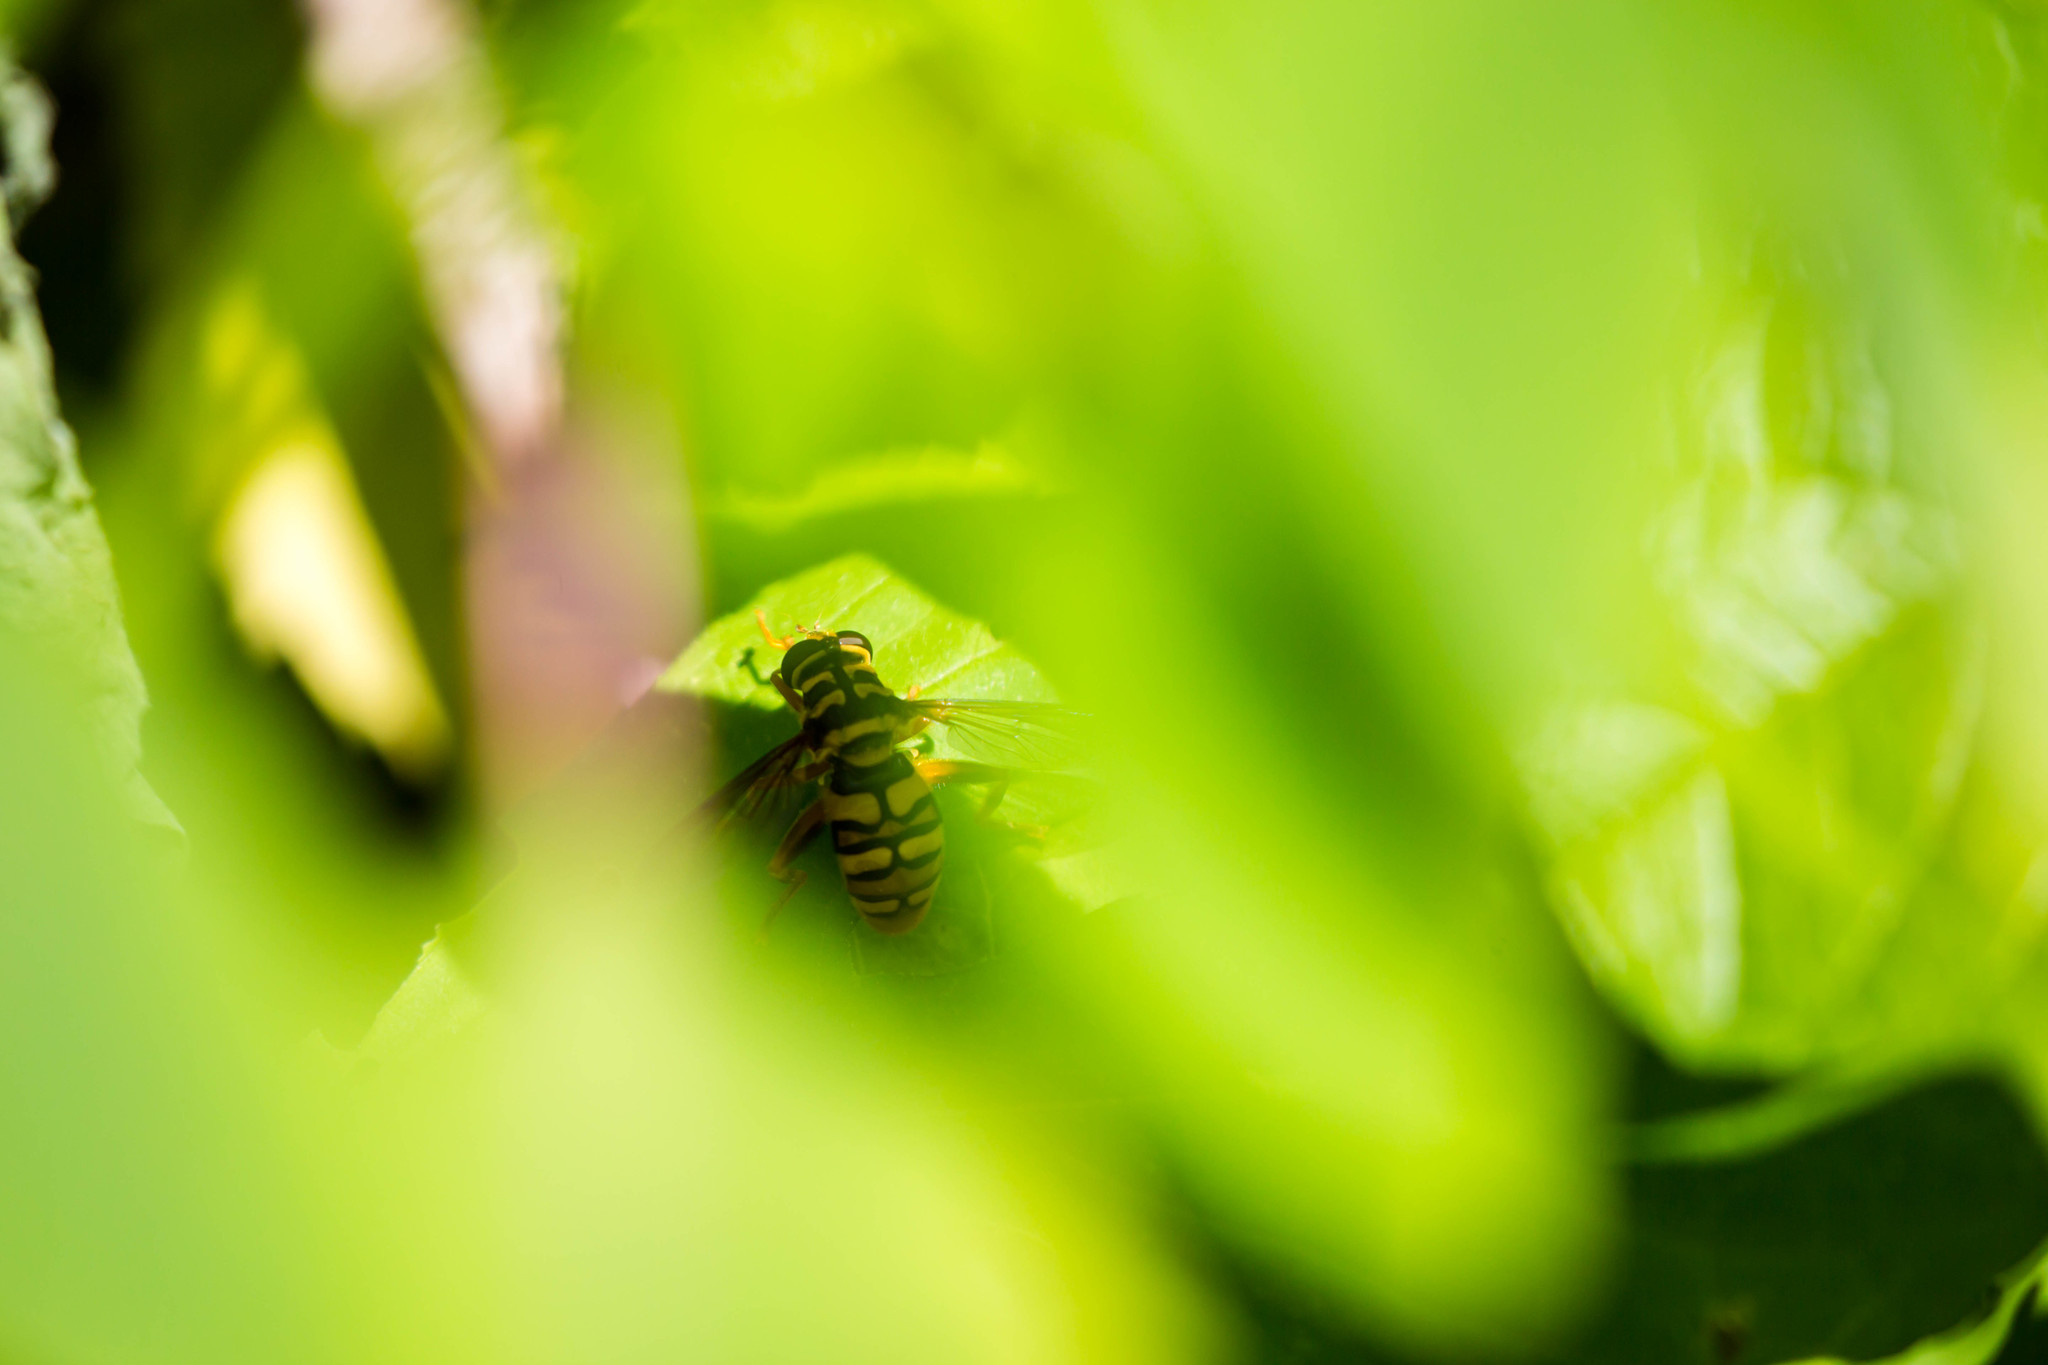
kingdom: Animalia
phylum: Arthropoda
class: Insecta
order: Diptera
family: Syrphidae
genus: Milesia
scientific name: Milesia virginiensis
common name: Virginia giant
